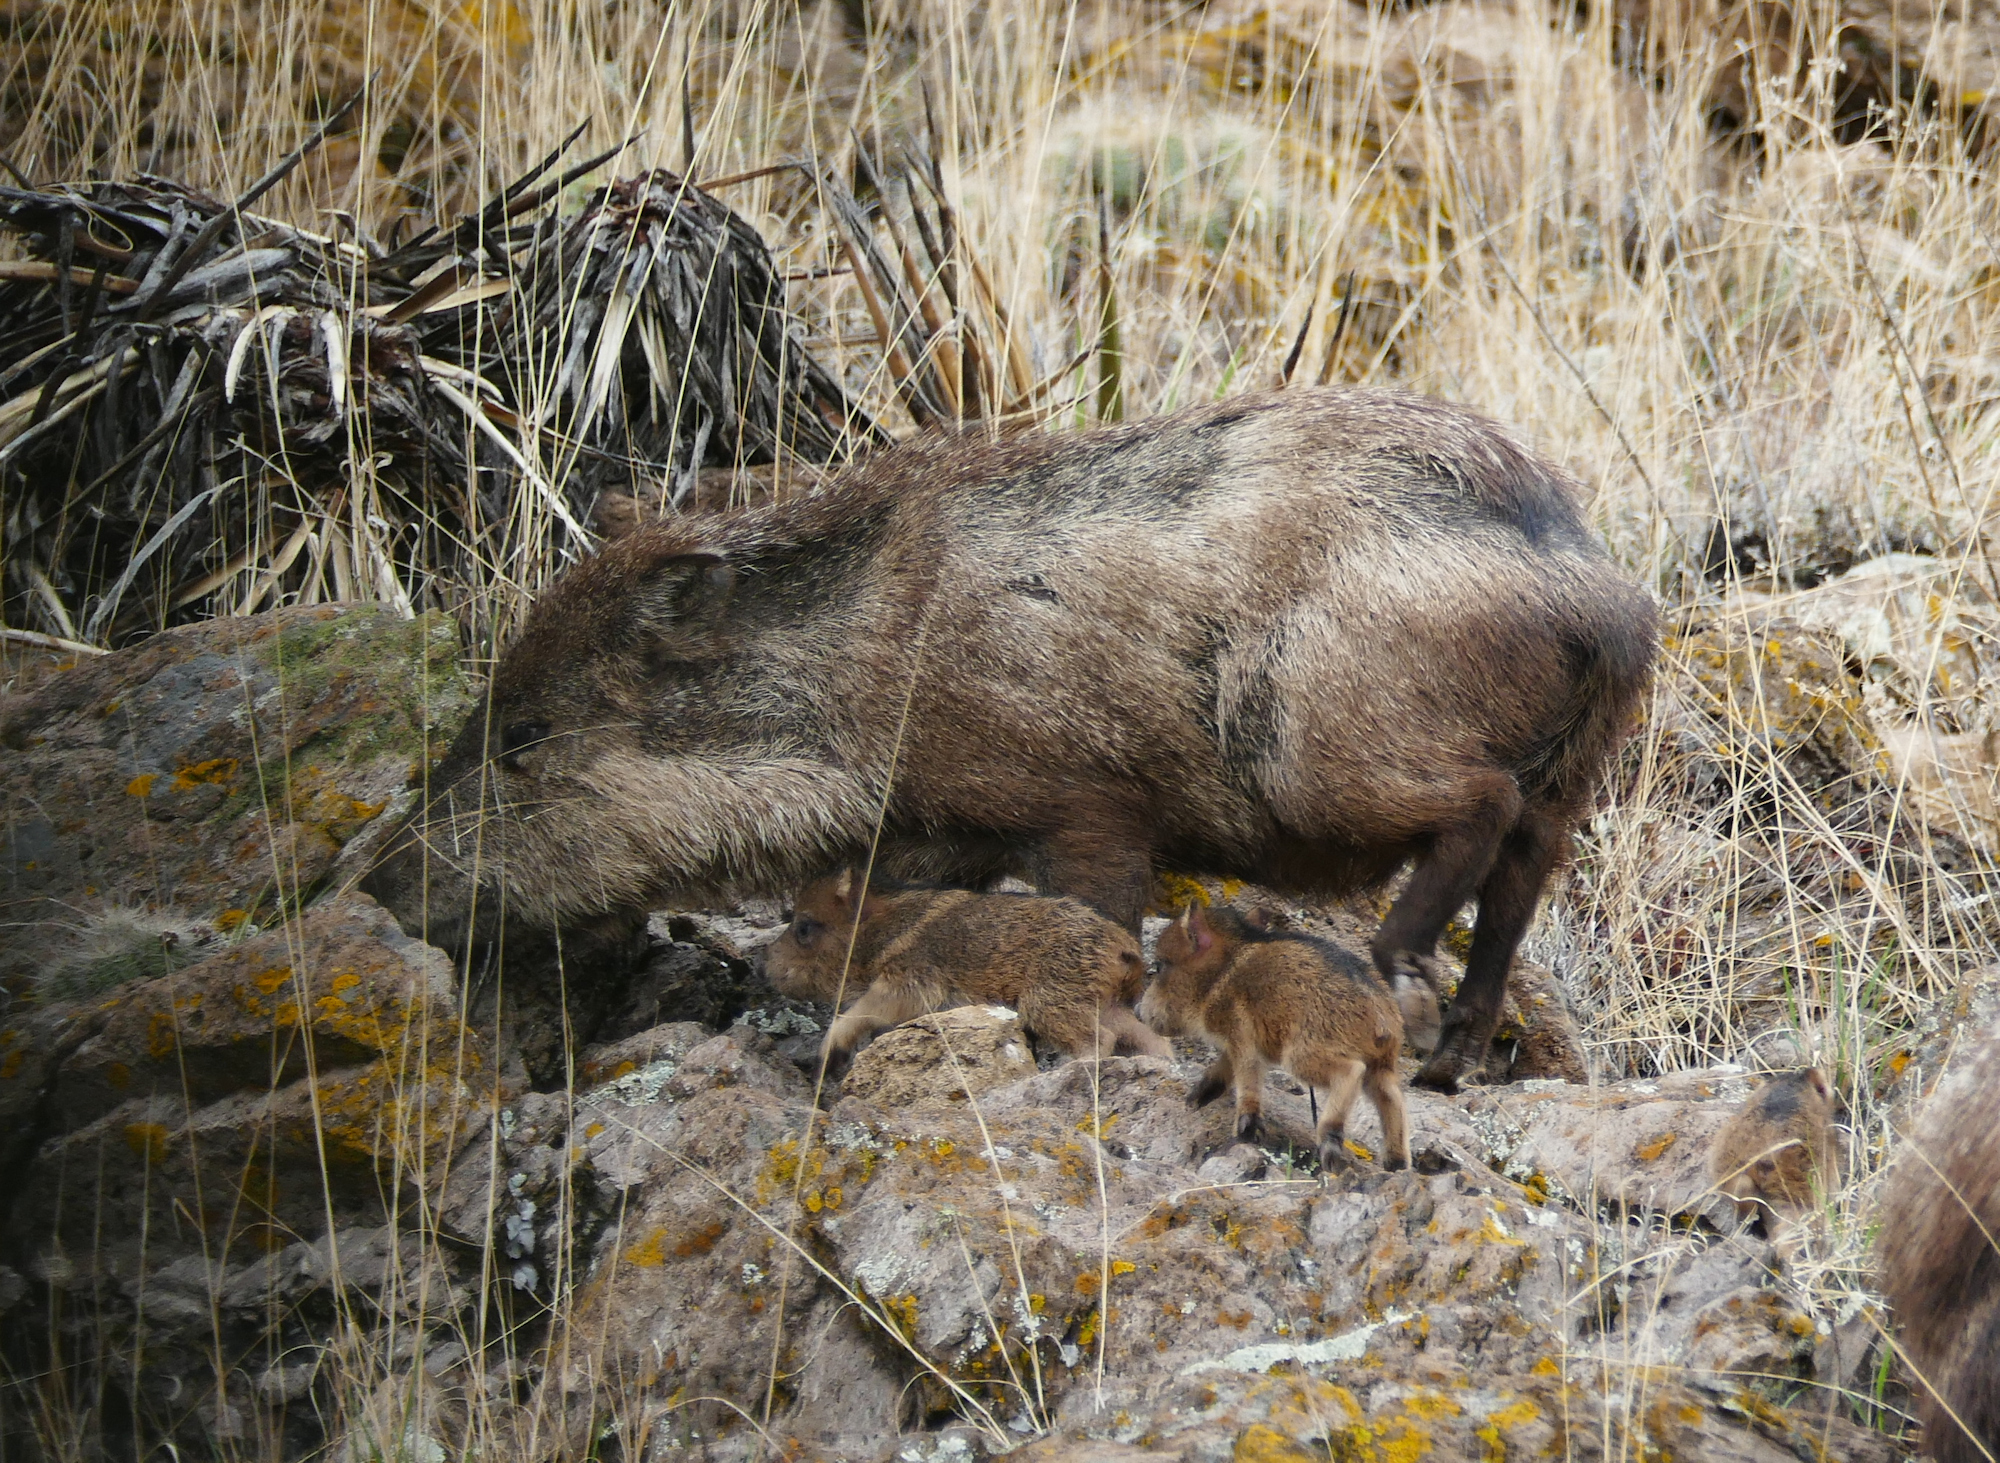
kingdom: Animalia
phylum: Chordata
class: Mammalia
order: Artiodactyla
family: Tayassuidae
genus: Pecari
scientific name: Pecari tajacu
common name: Collared peccary
